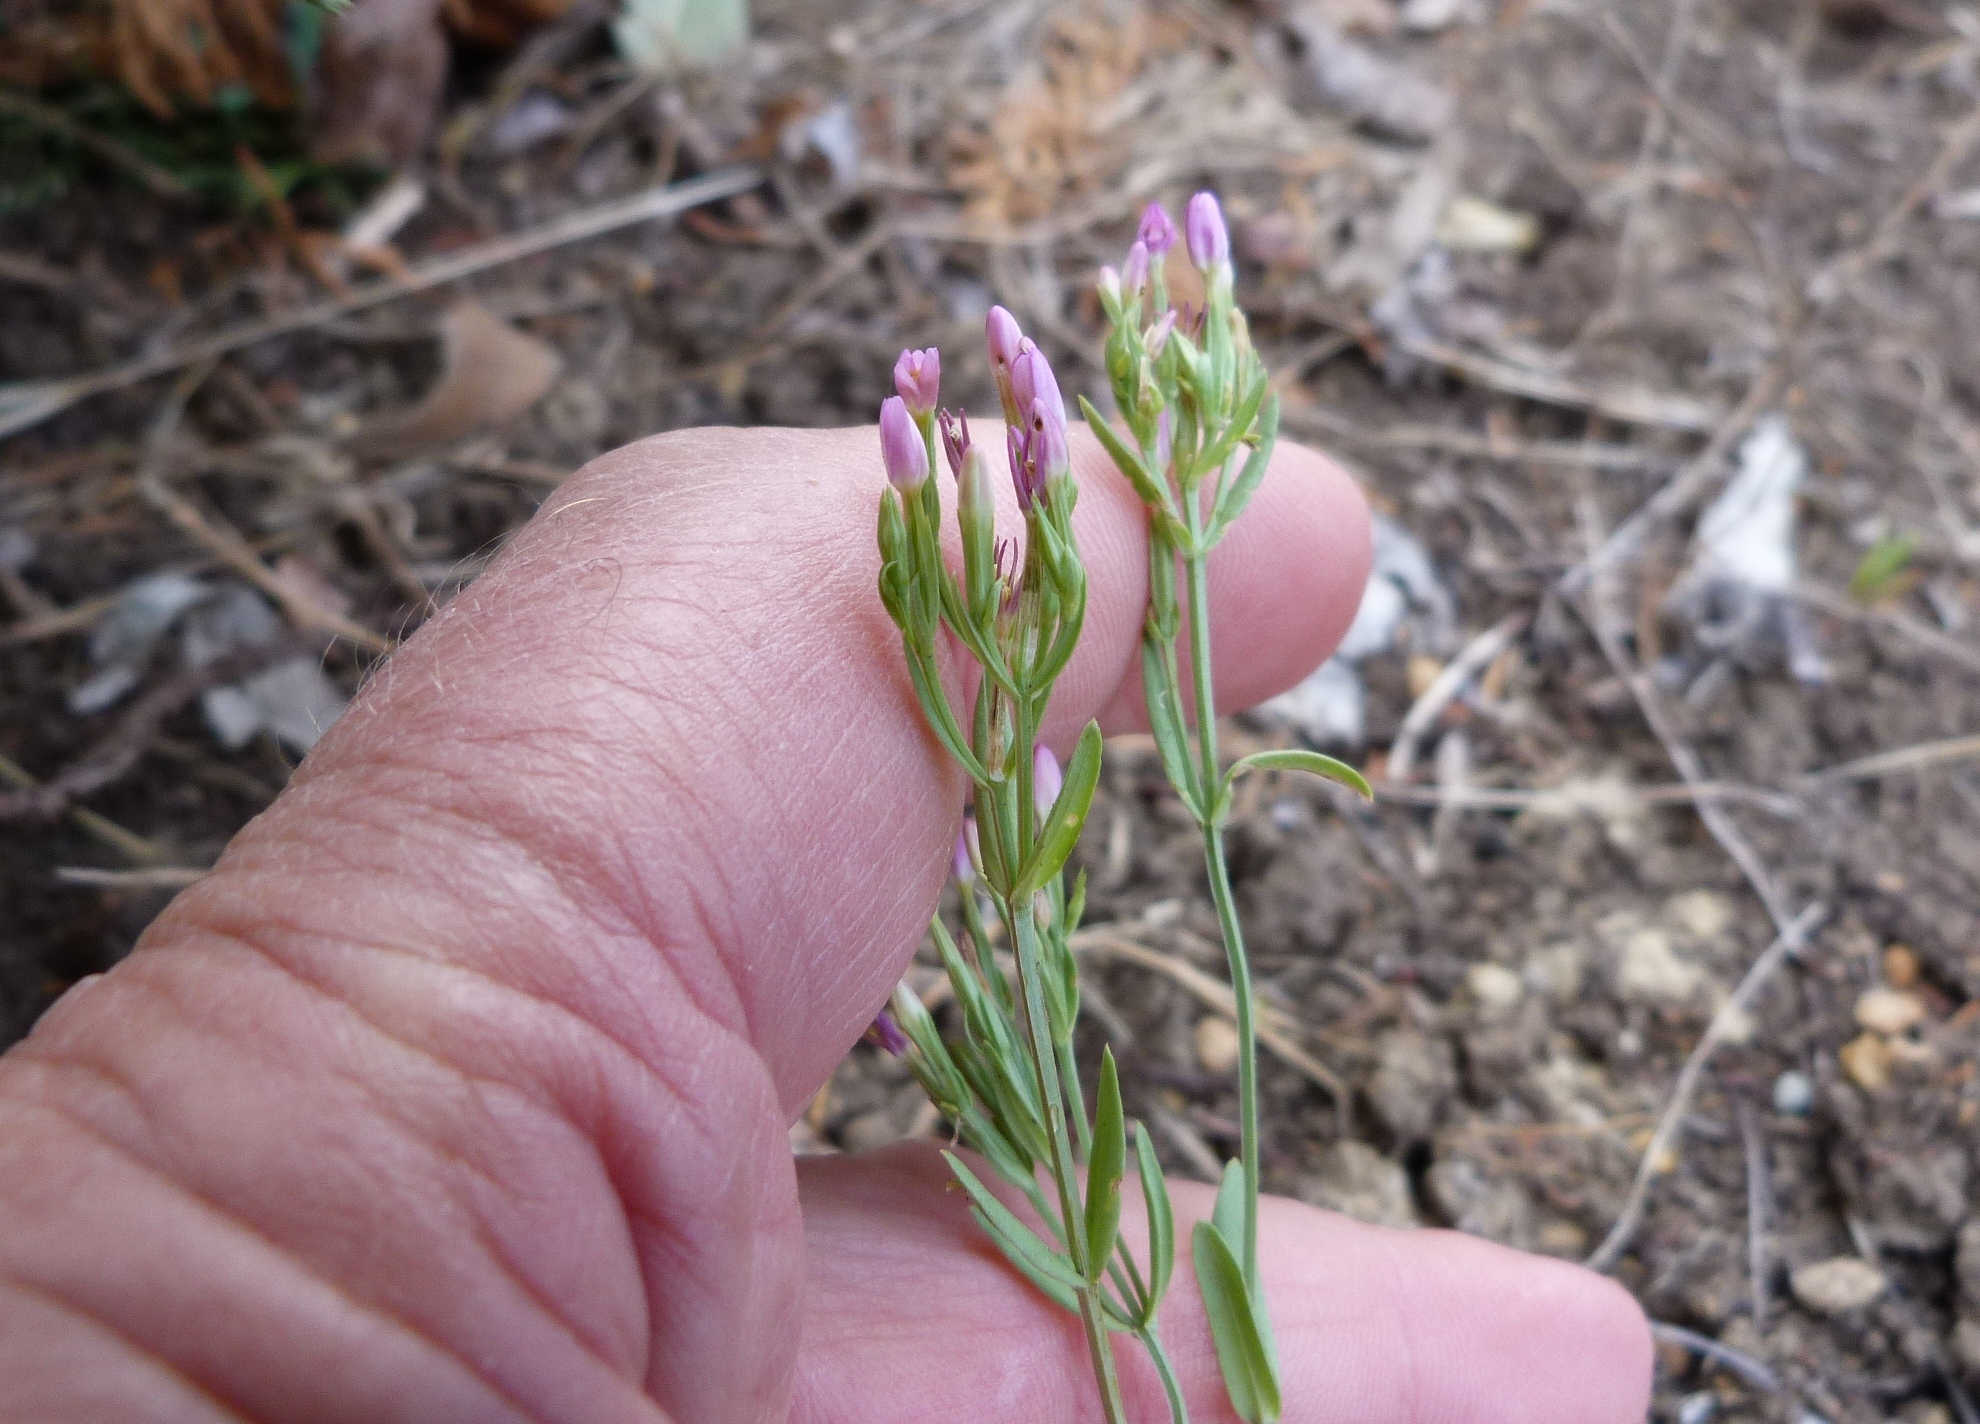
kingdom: Plantae
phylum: Tracheophyta
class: Magnoliopsida
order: Gentianales
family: Gentianaceae
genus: Centaurium
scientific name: Centaurium erythraea
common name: Common centaury
